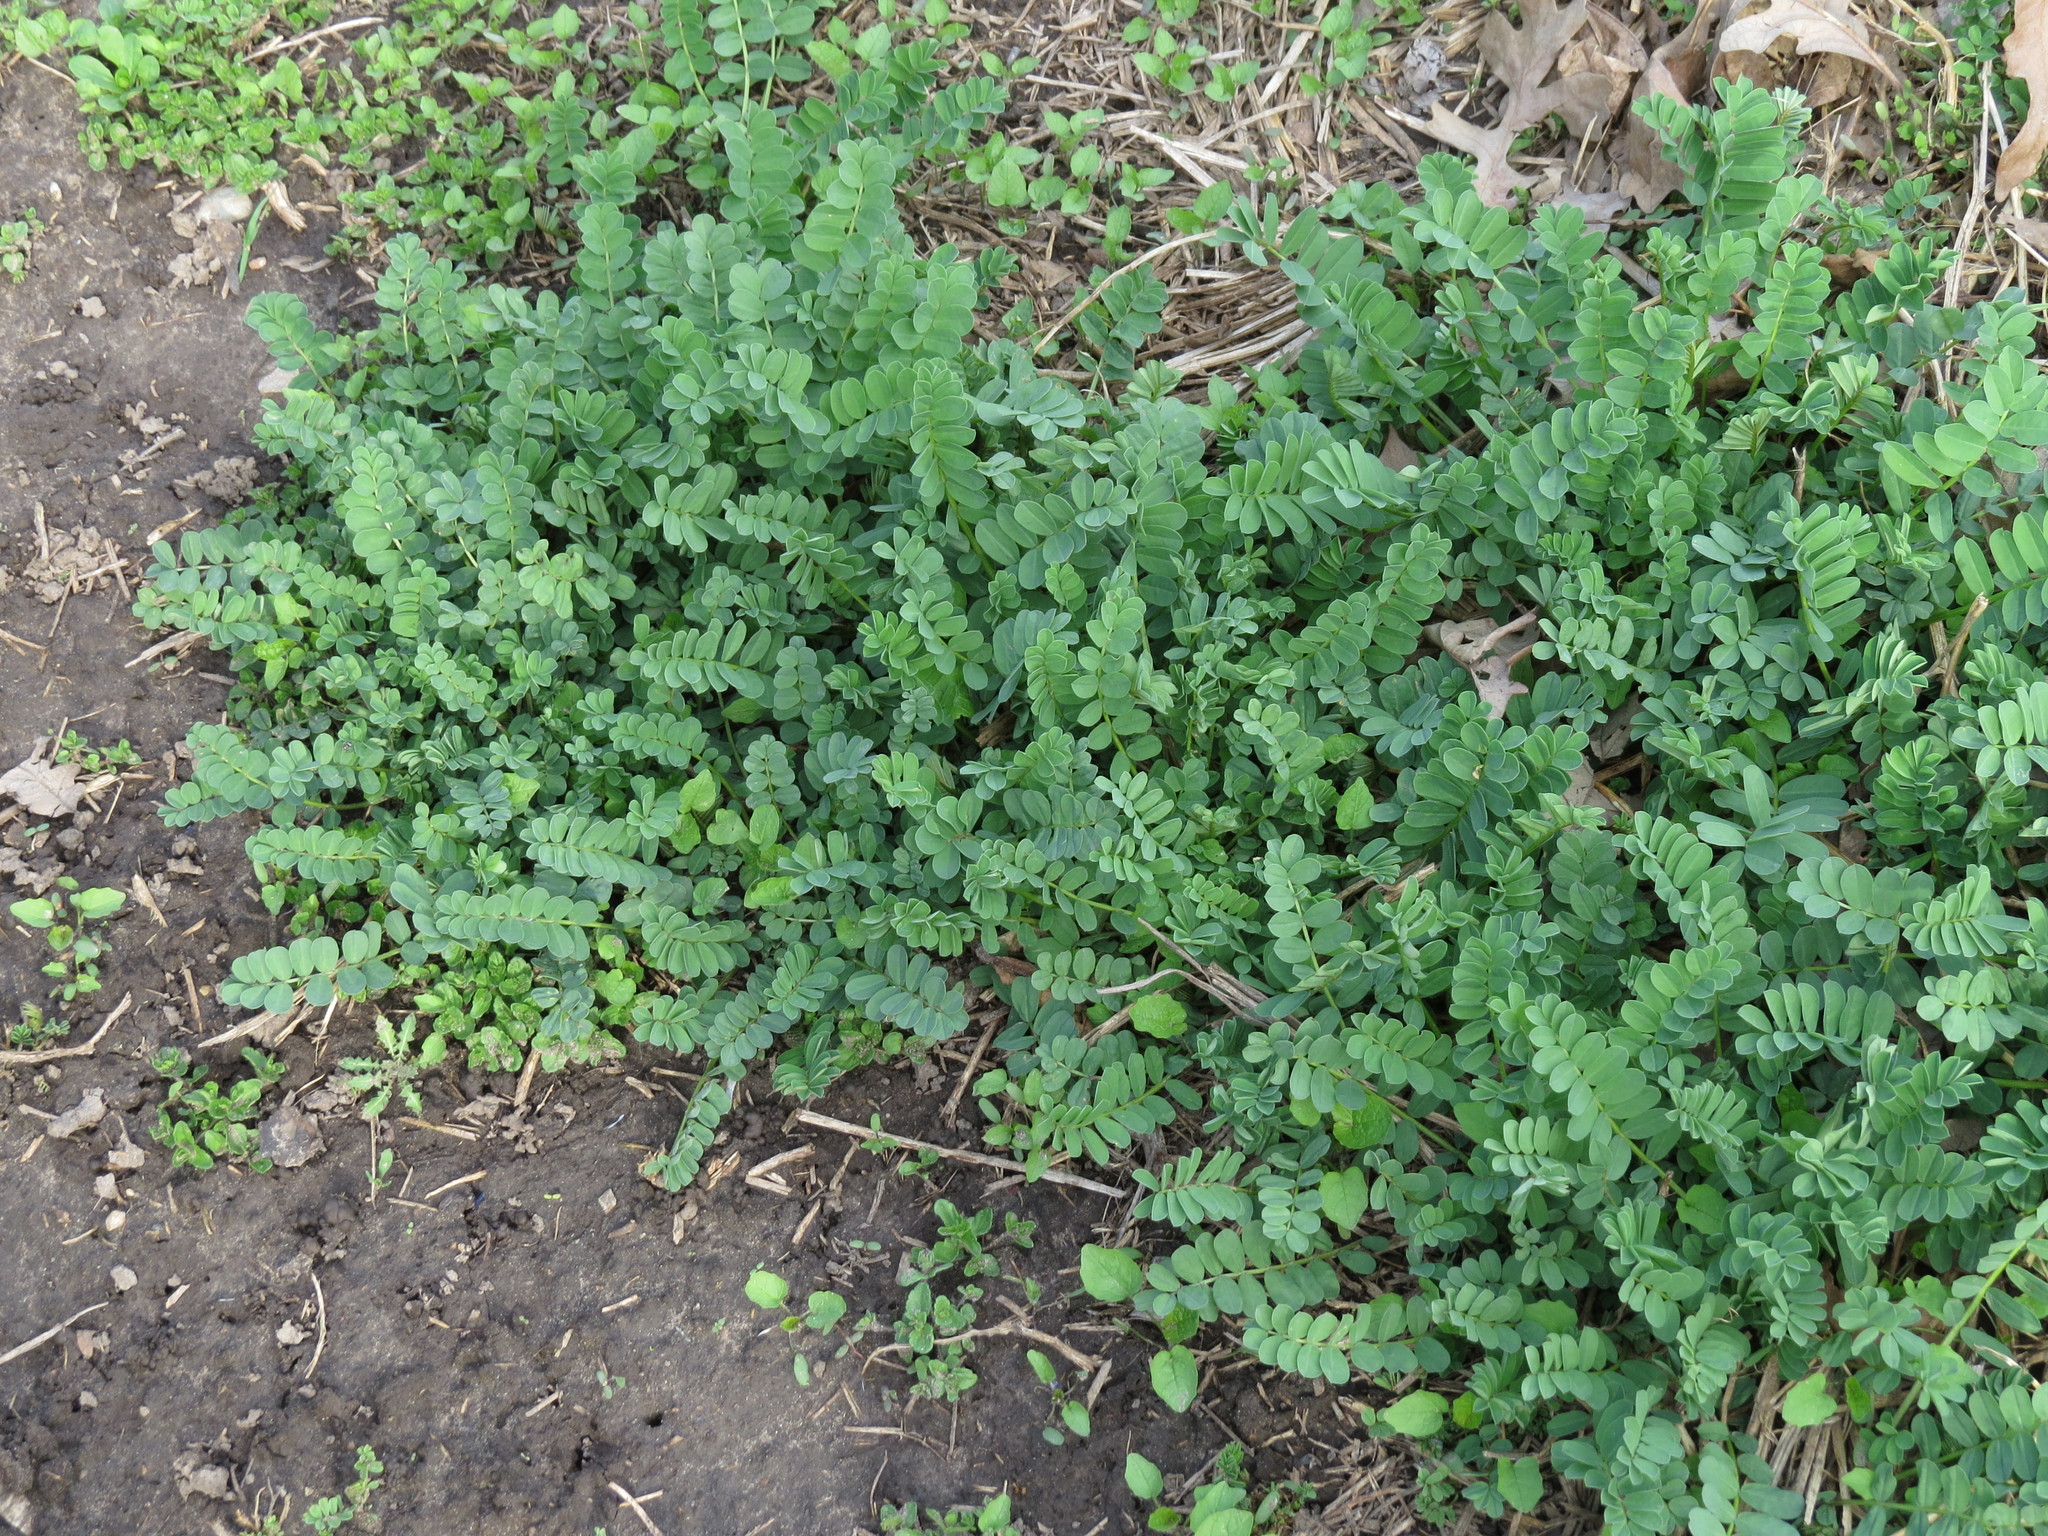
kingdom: Plantae
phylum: Tracheophyta
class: Magnoliopsida
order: Fabales
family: Fabaceae
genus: Coronilla
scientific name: Coronilla varia
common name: Crownvetch
